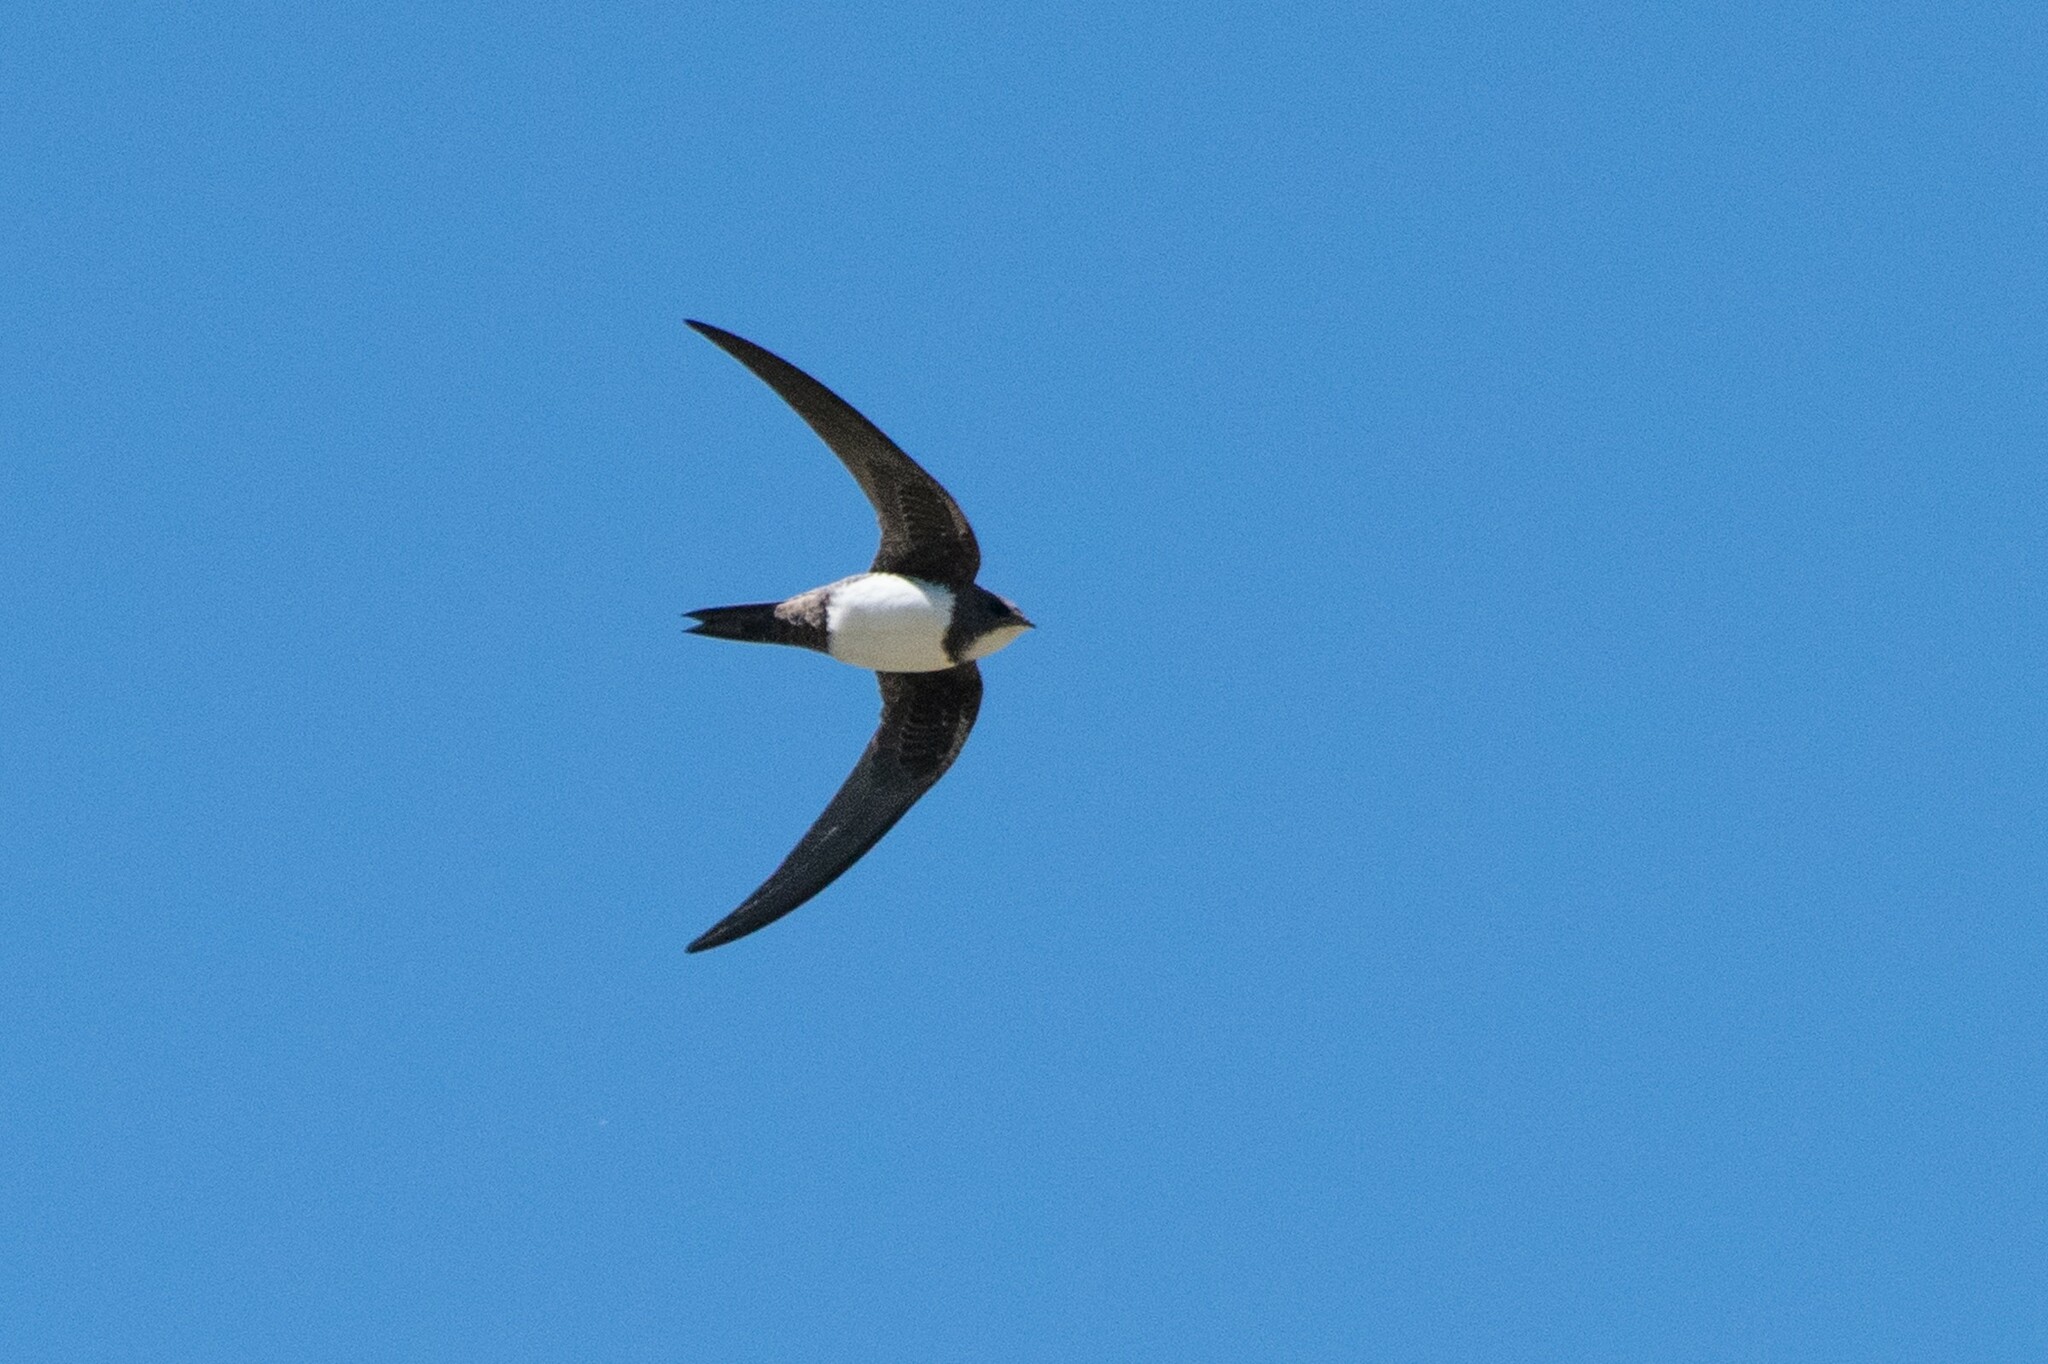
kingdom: Animalia
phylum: Chordata
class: Aves
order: Apodiformes
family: Apodidae
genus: Tachymarptis
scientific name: Tachymarptis melba
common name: Alpine swift
